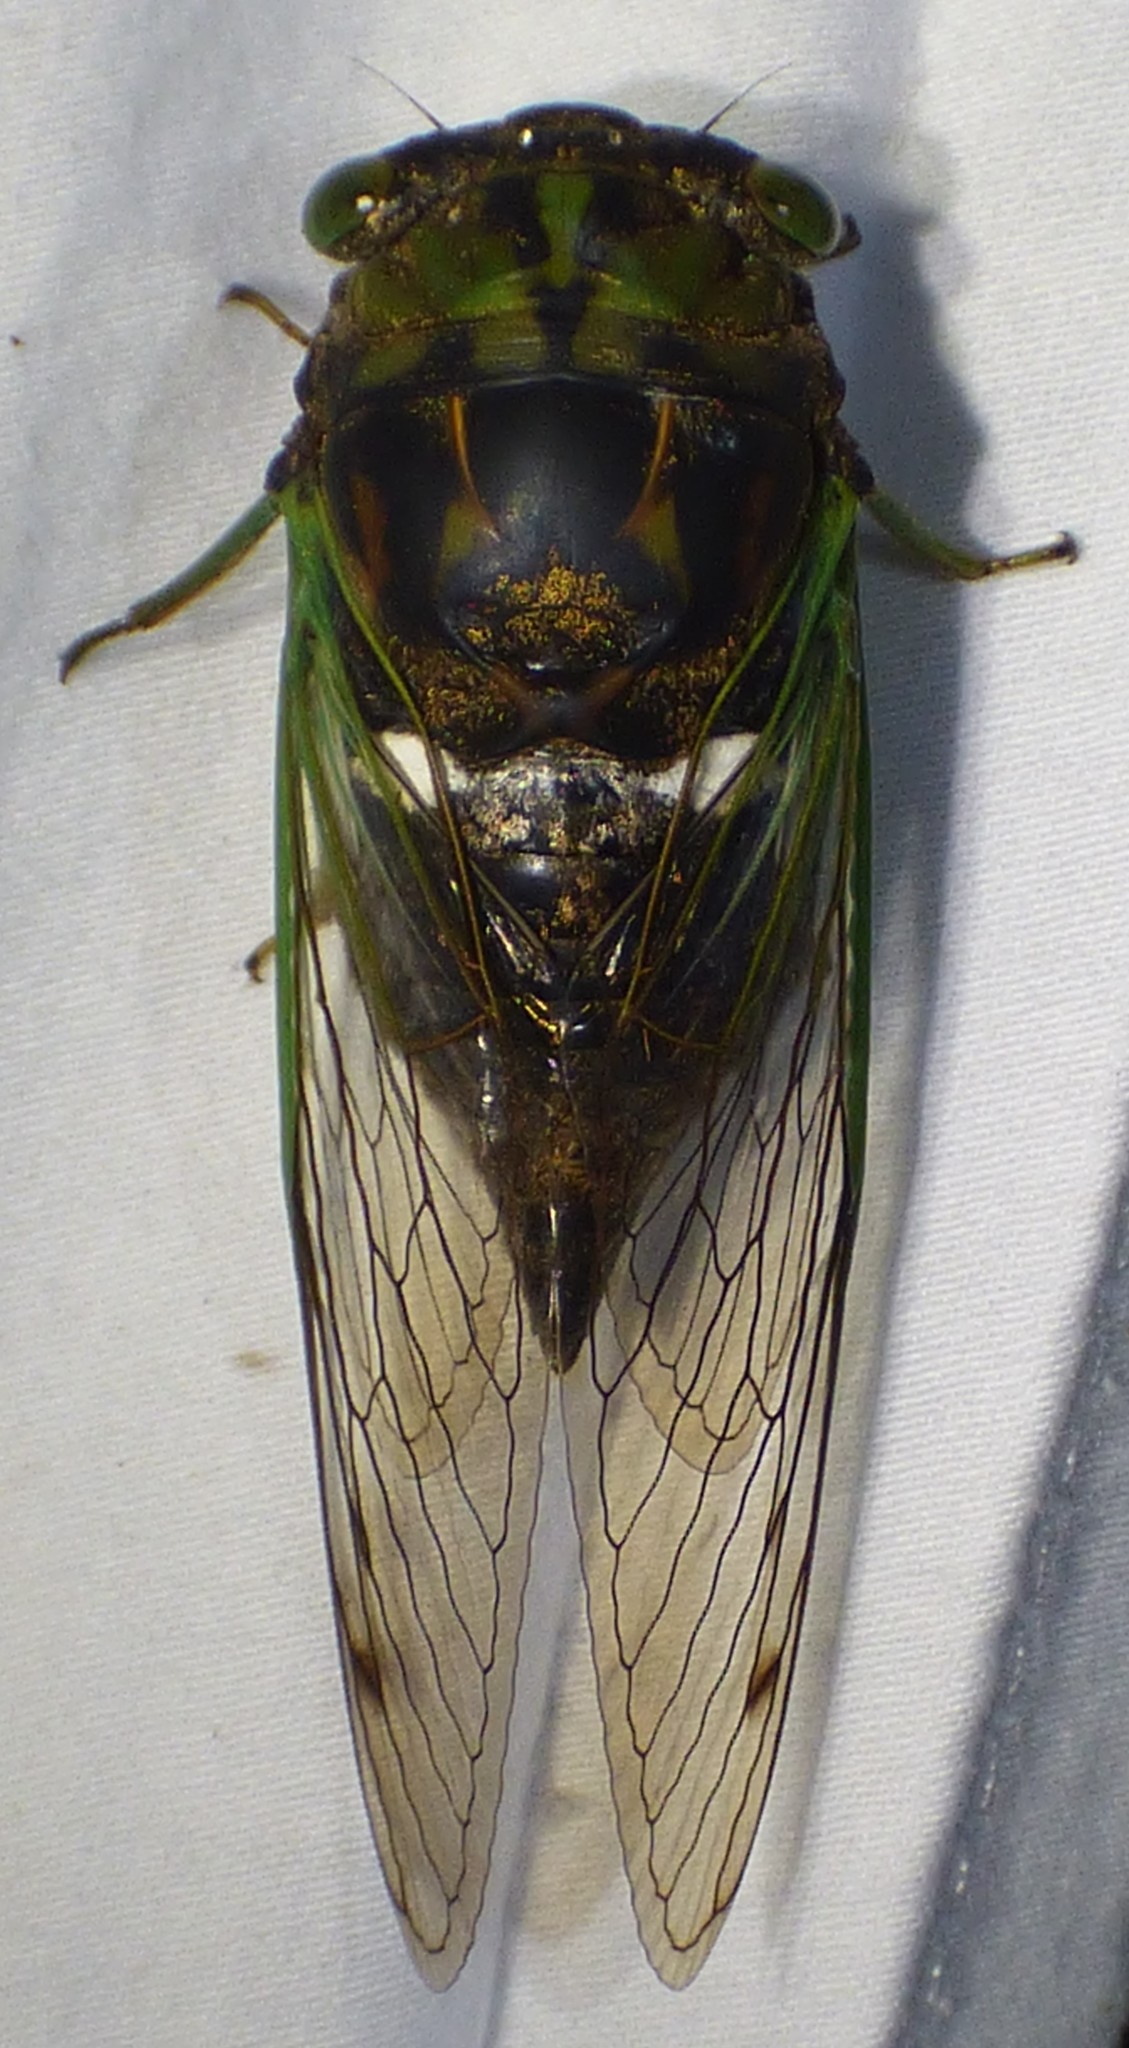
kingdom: Animalia
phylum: Arthropoda
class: Insecta
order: Hemiptera
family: Cicadidae
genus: Neotibicen
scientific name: Neotibicen tibicen
